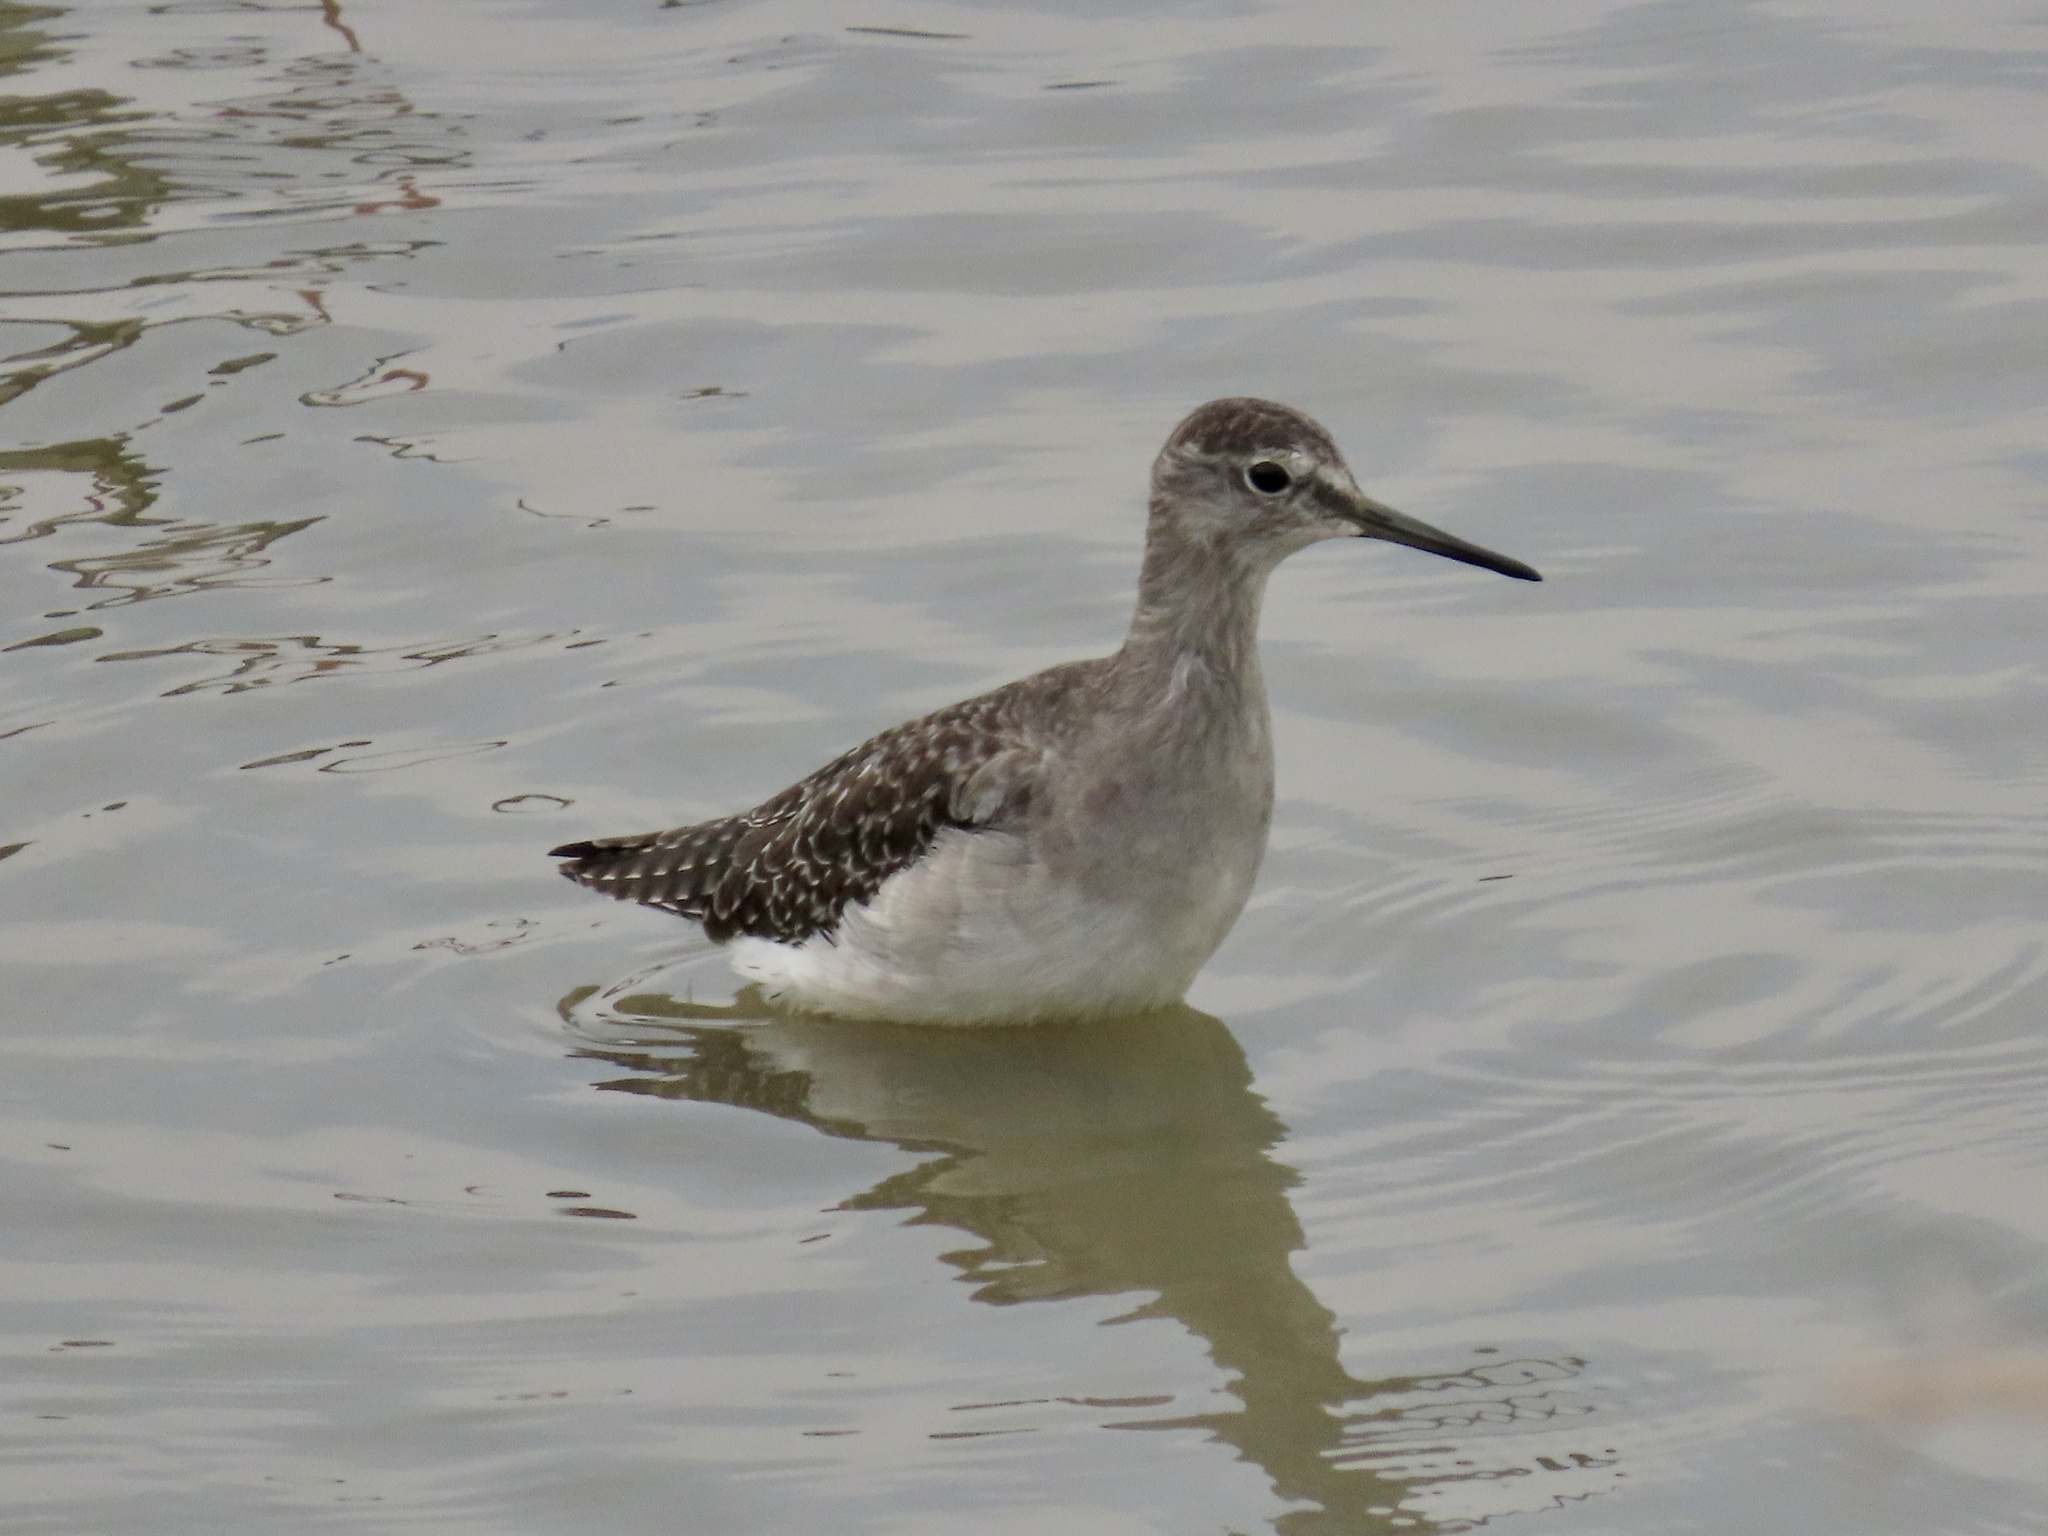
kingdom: Animalia
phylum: Chordata
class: Aves
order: Charadriiformes
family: Scolopacidae
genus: Tringa
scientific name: Tringa glareola
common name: Wood sandpiper
